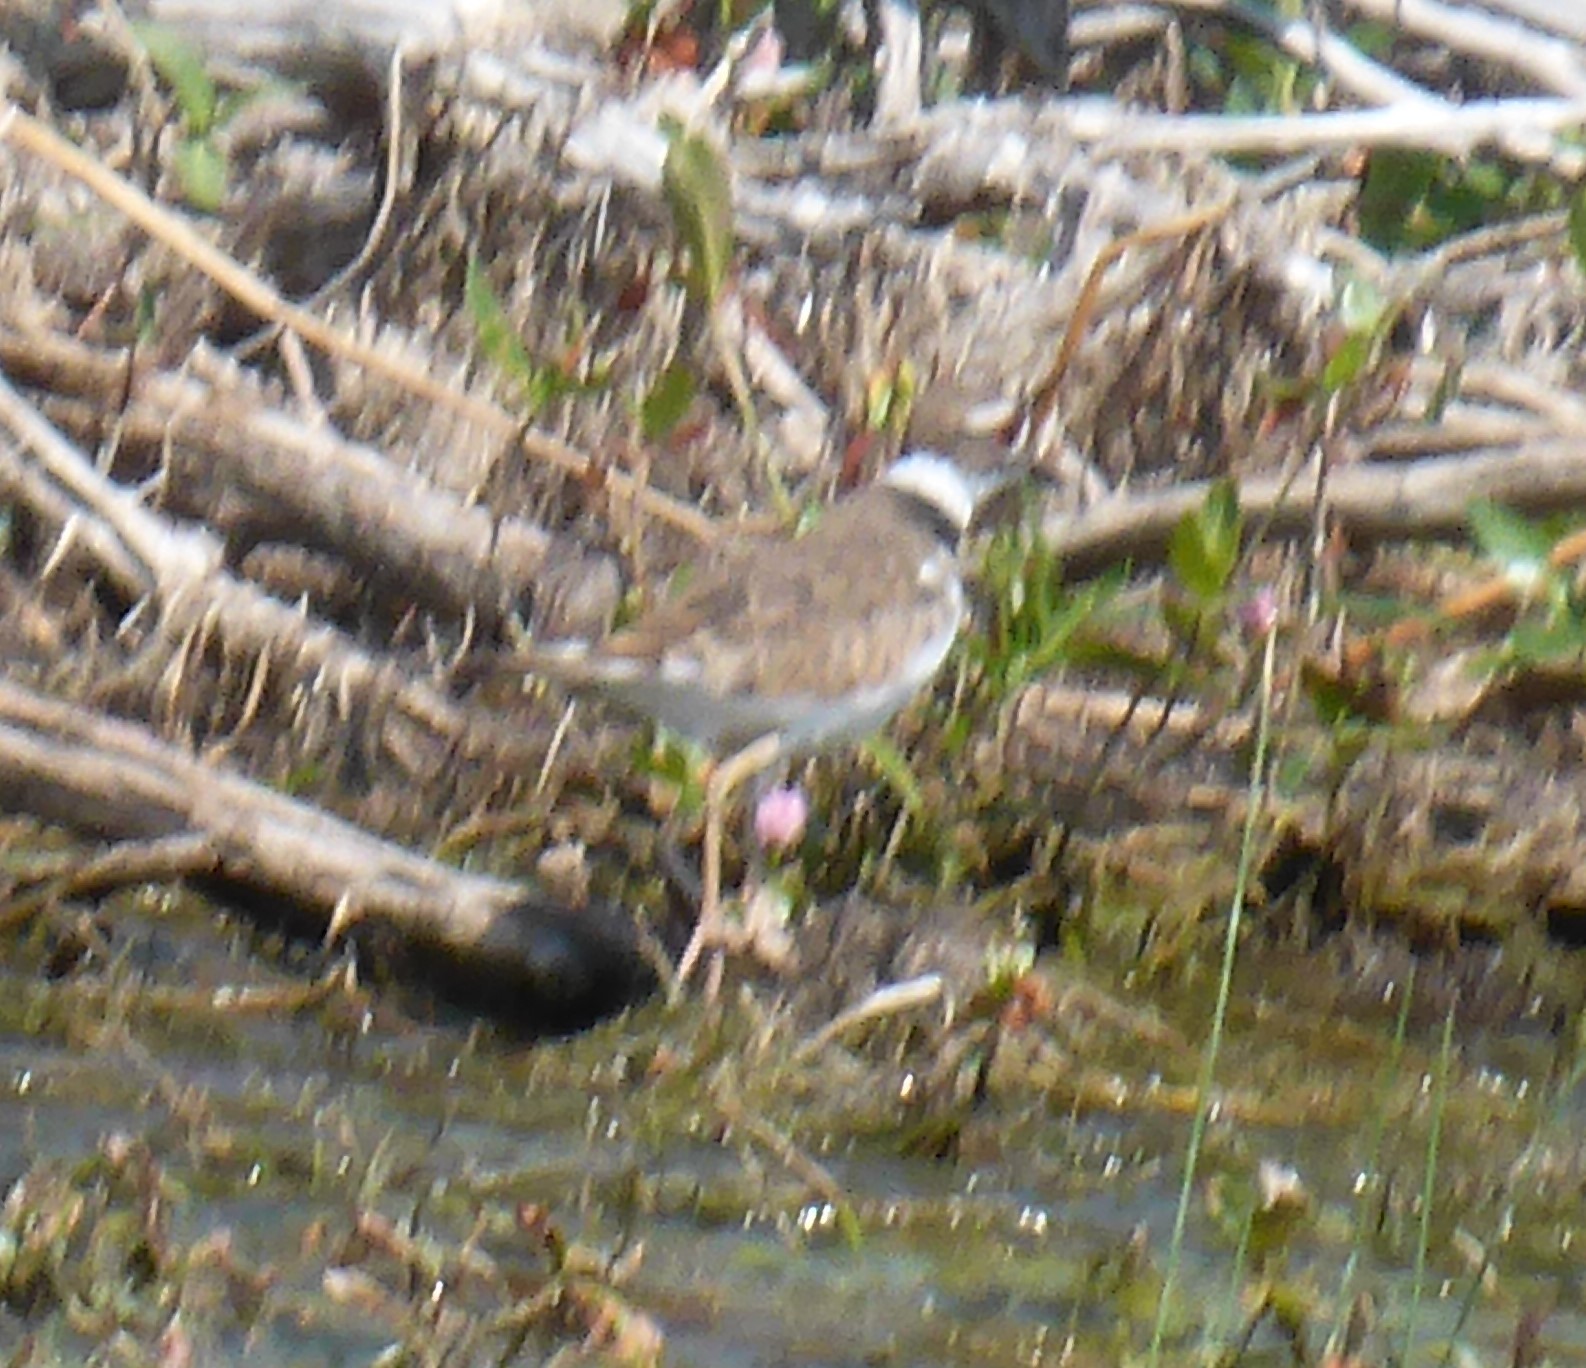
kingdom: Animalia
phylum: Chordata
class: Aves
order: Charadriiformes
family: Charadriidae
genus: Charadrius
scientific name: Charadrius vociferus
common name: Killdeer
